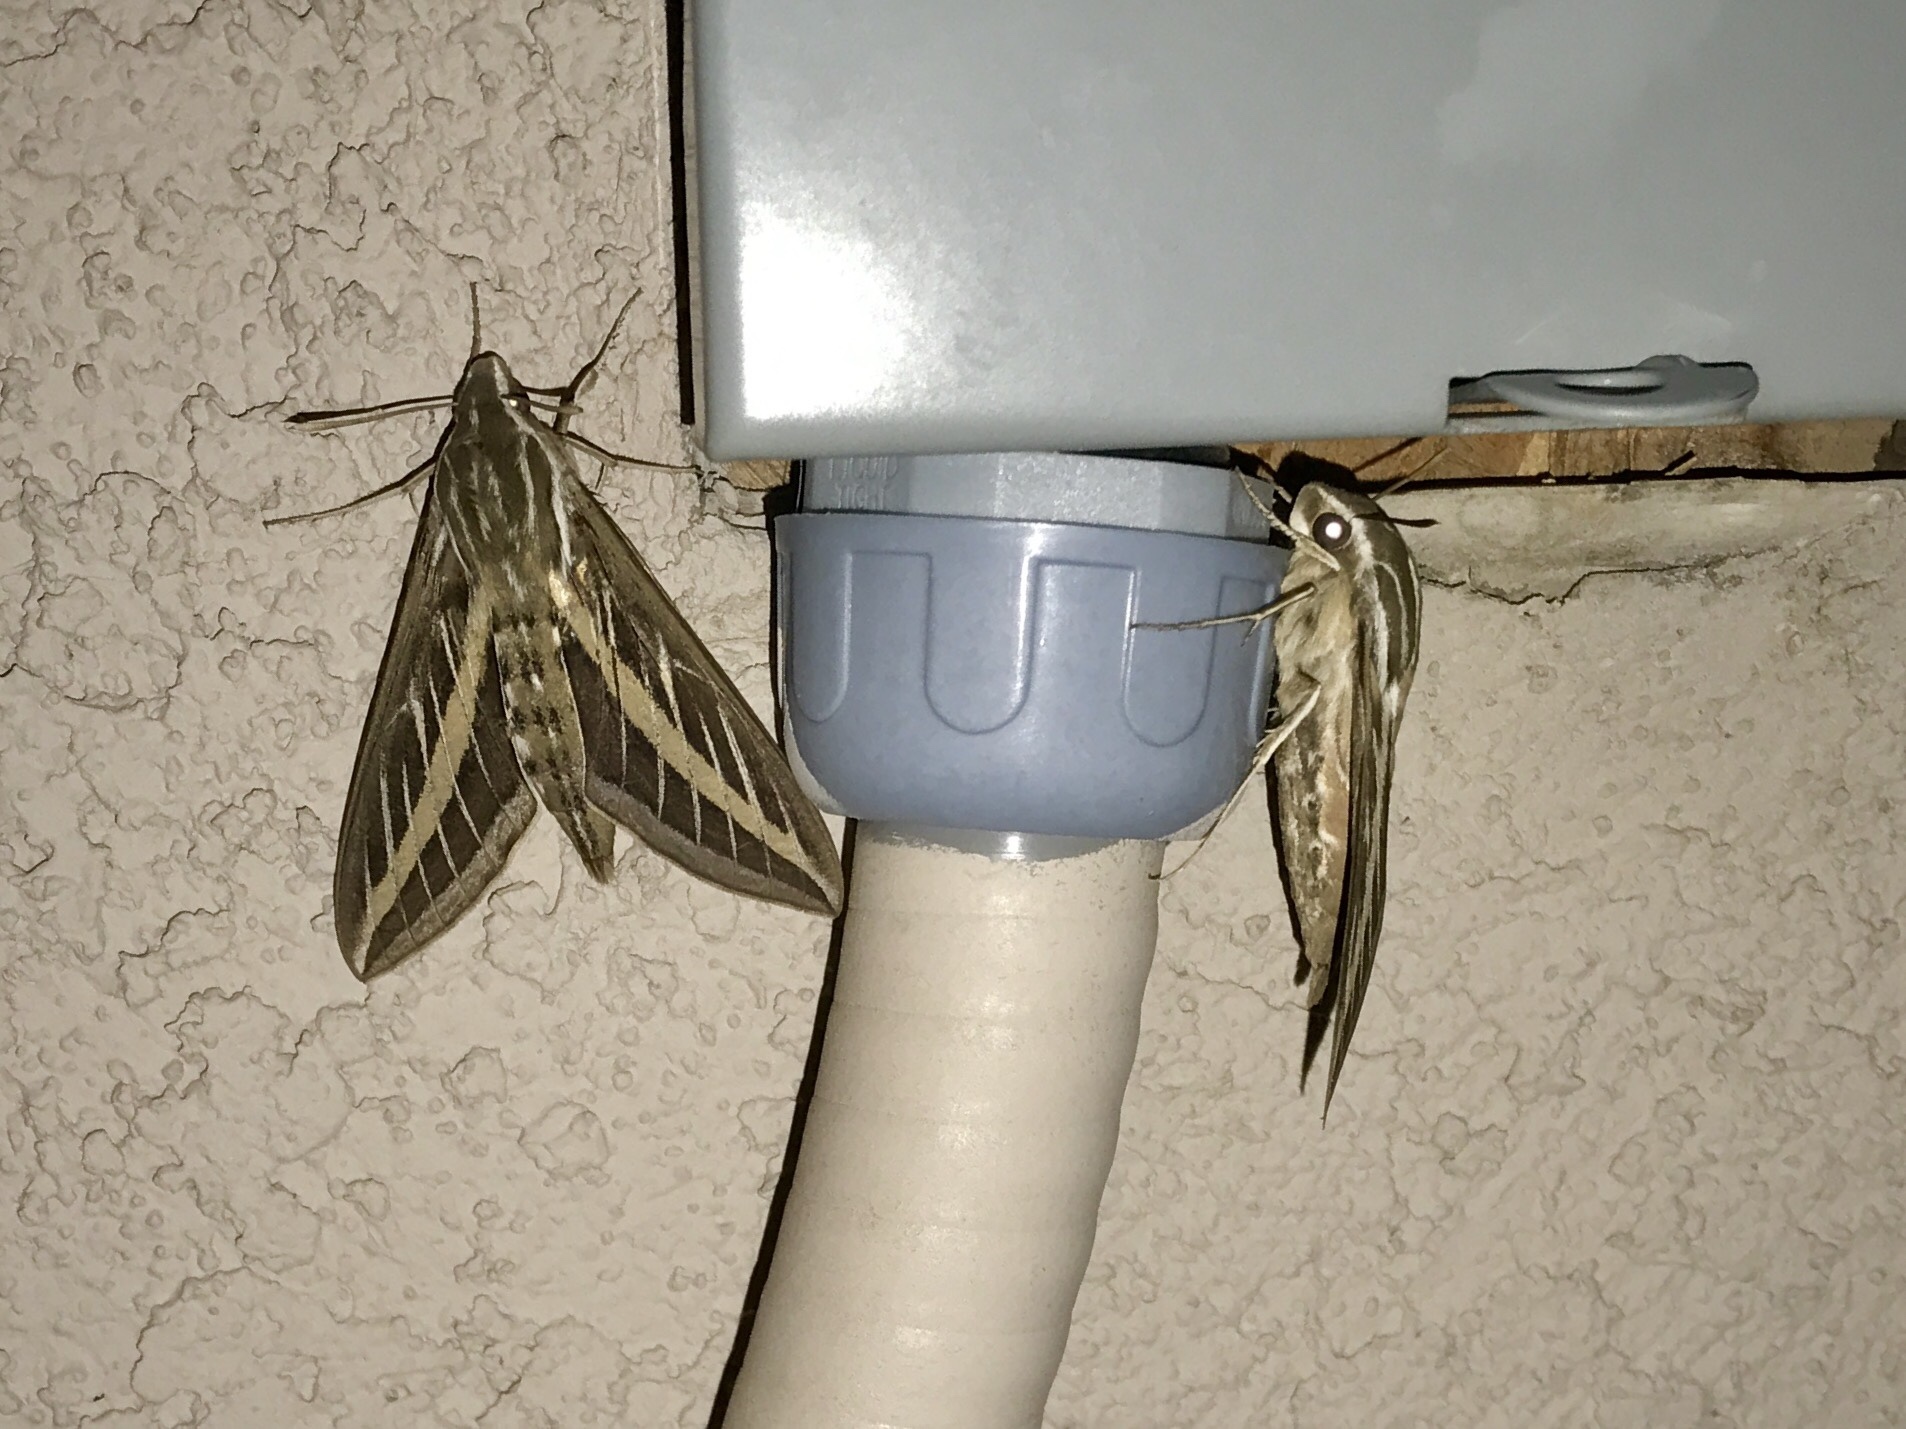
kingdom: Animalia
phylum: Arthropoda
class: Insecta
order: Lepidoptera
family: Sphingidae
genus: Hyles
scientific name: Hyles lineata
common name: White-lined sphinx
